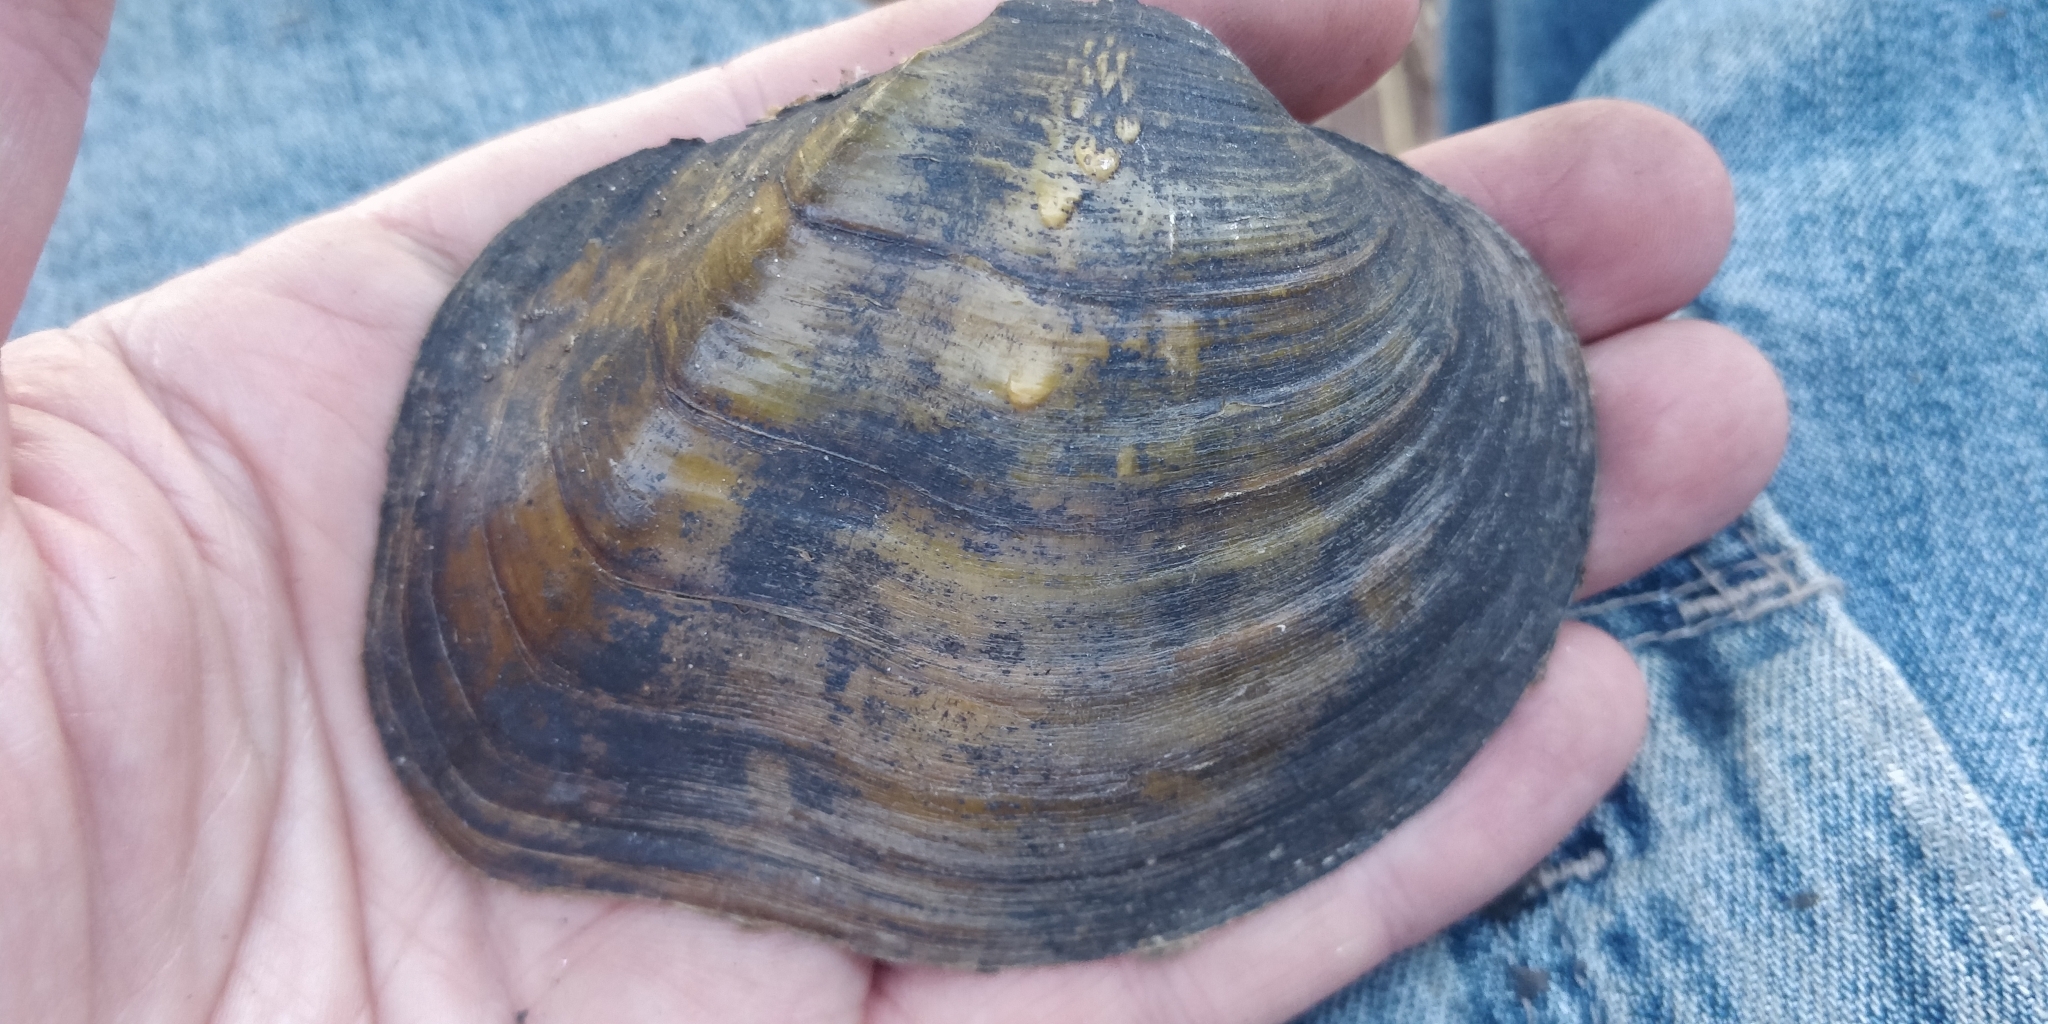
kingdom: Animalia
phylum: Mollusca
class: Bivalvia
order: Unionida
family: Unionidae
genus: Quadrula
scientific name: Quadrula quadrula
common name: Mapleleaf
